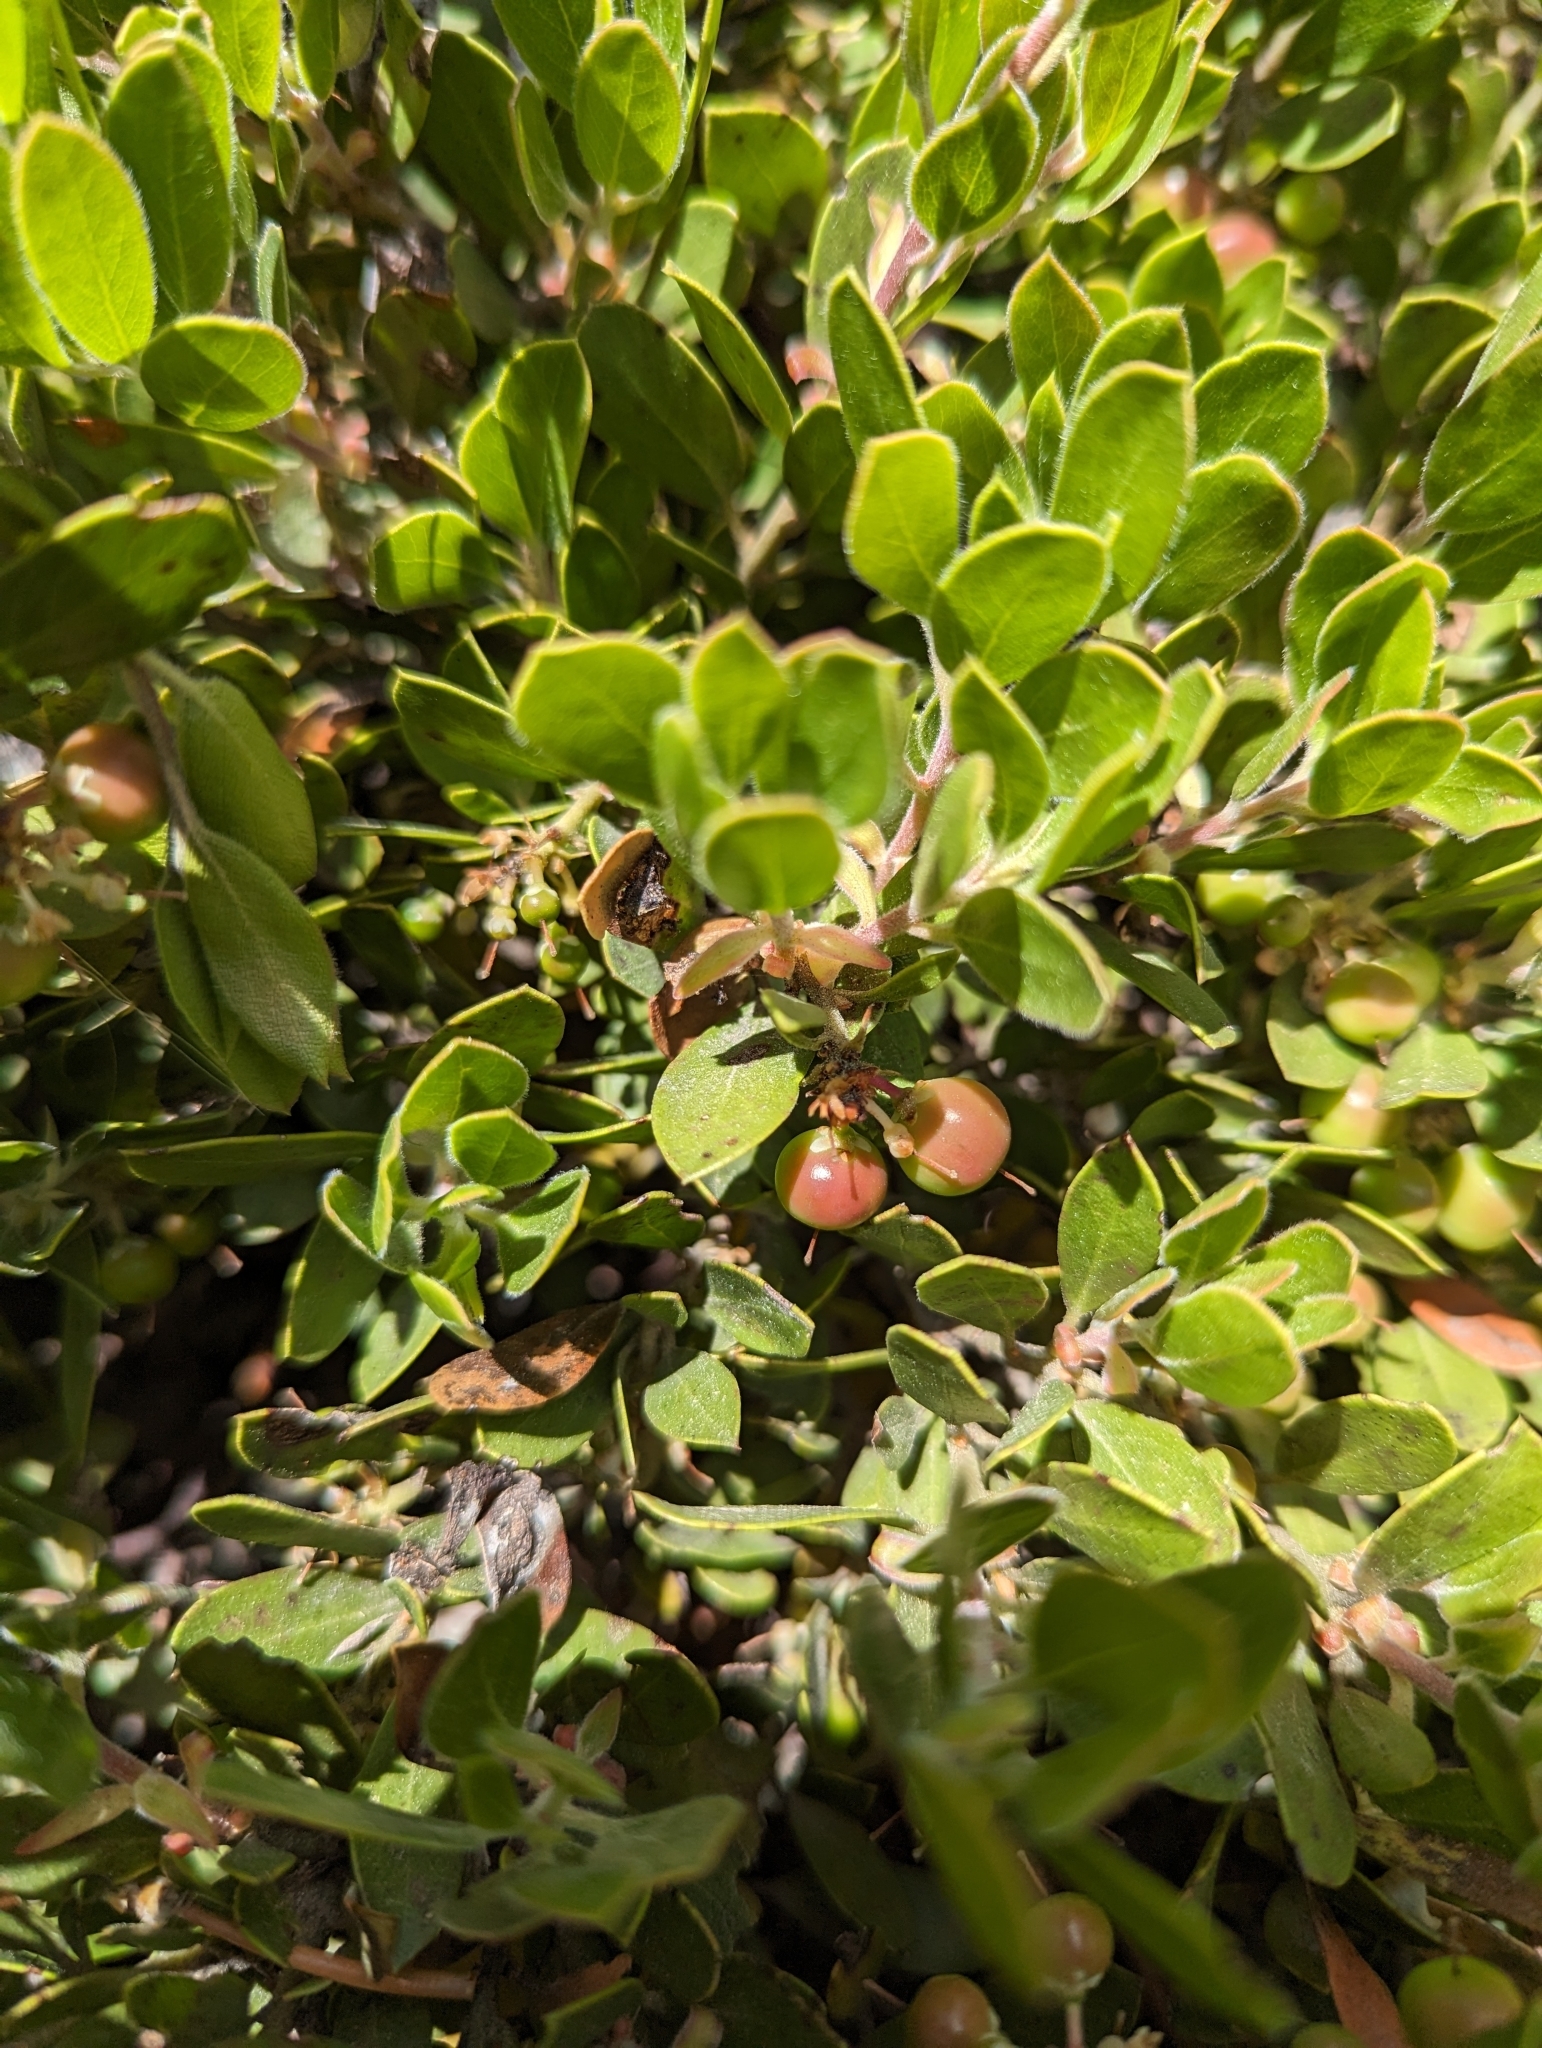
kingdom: Plantae
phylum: Tracheophyta
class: Magnoliopsida
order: Ericales
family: Ericaceae
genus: Arctostaphylos
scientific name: Arctostaphylos nevadensis
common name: Pinemat manzanita
